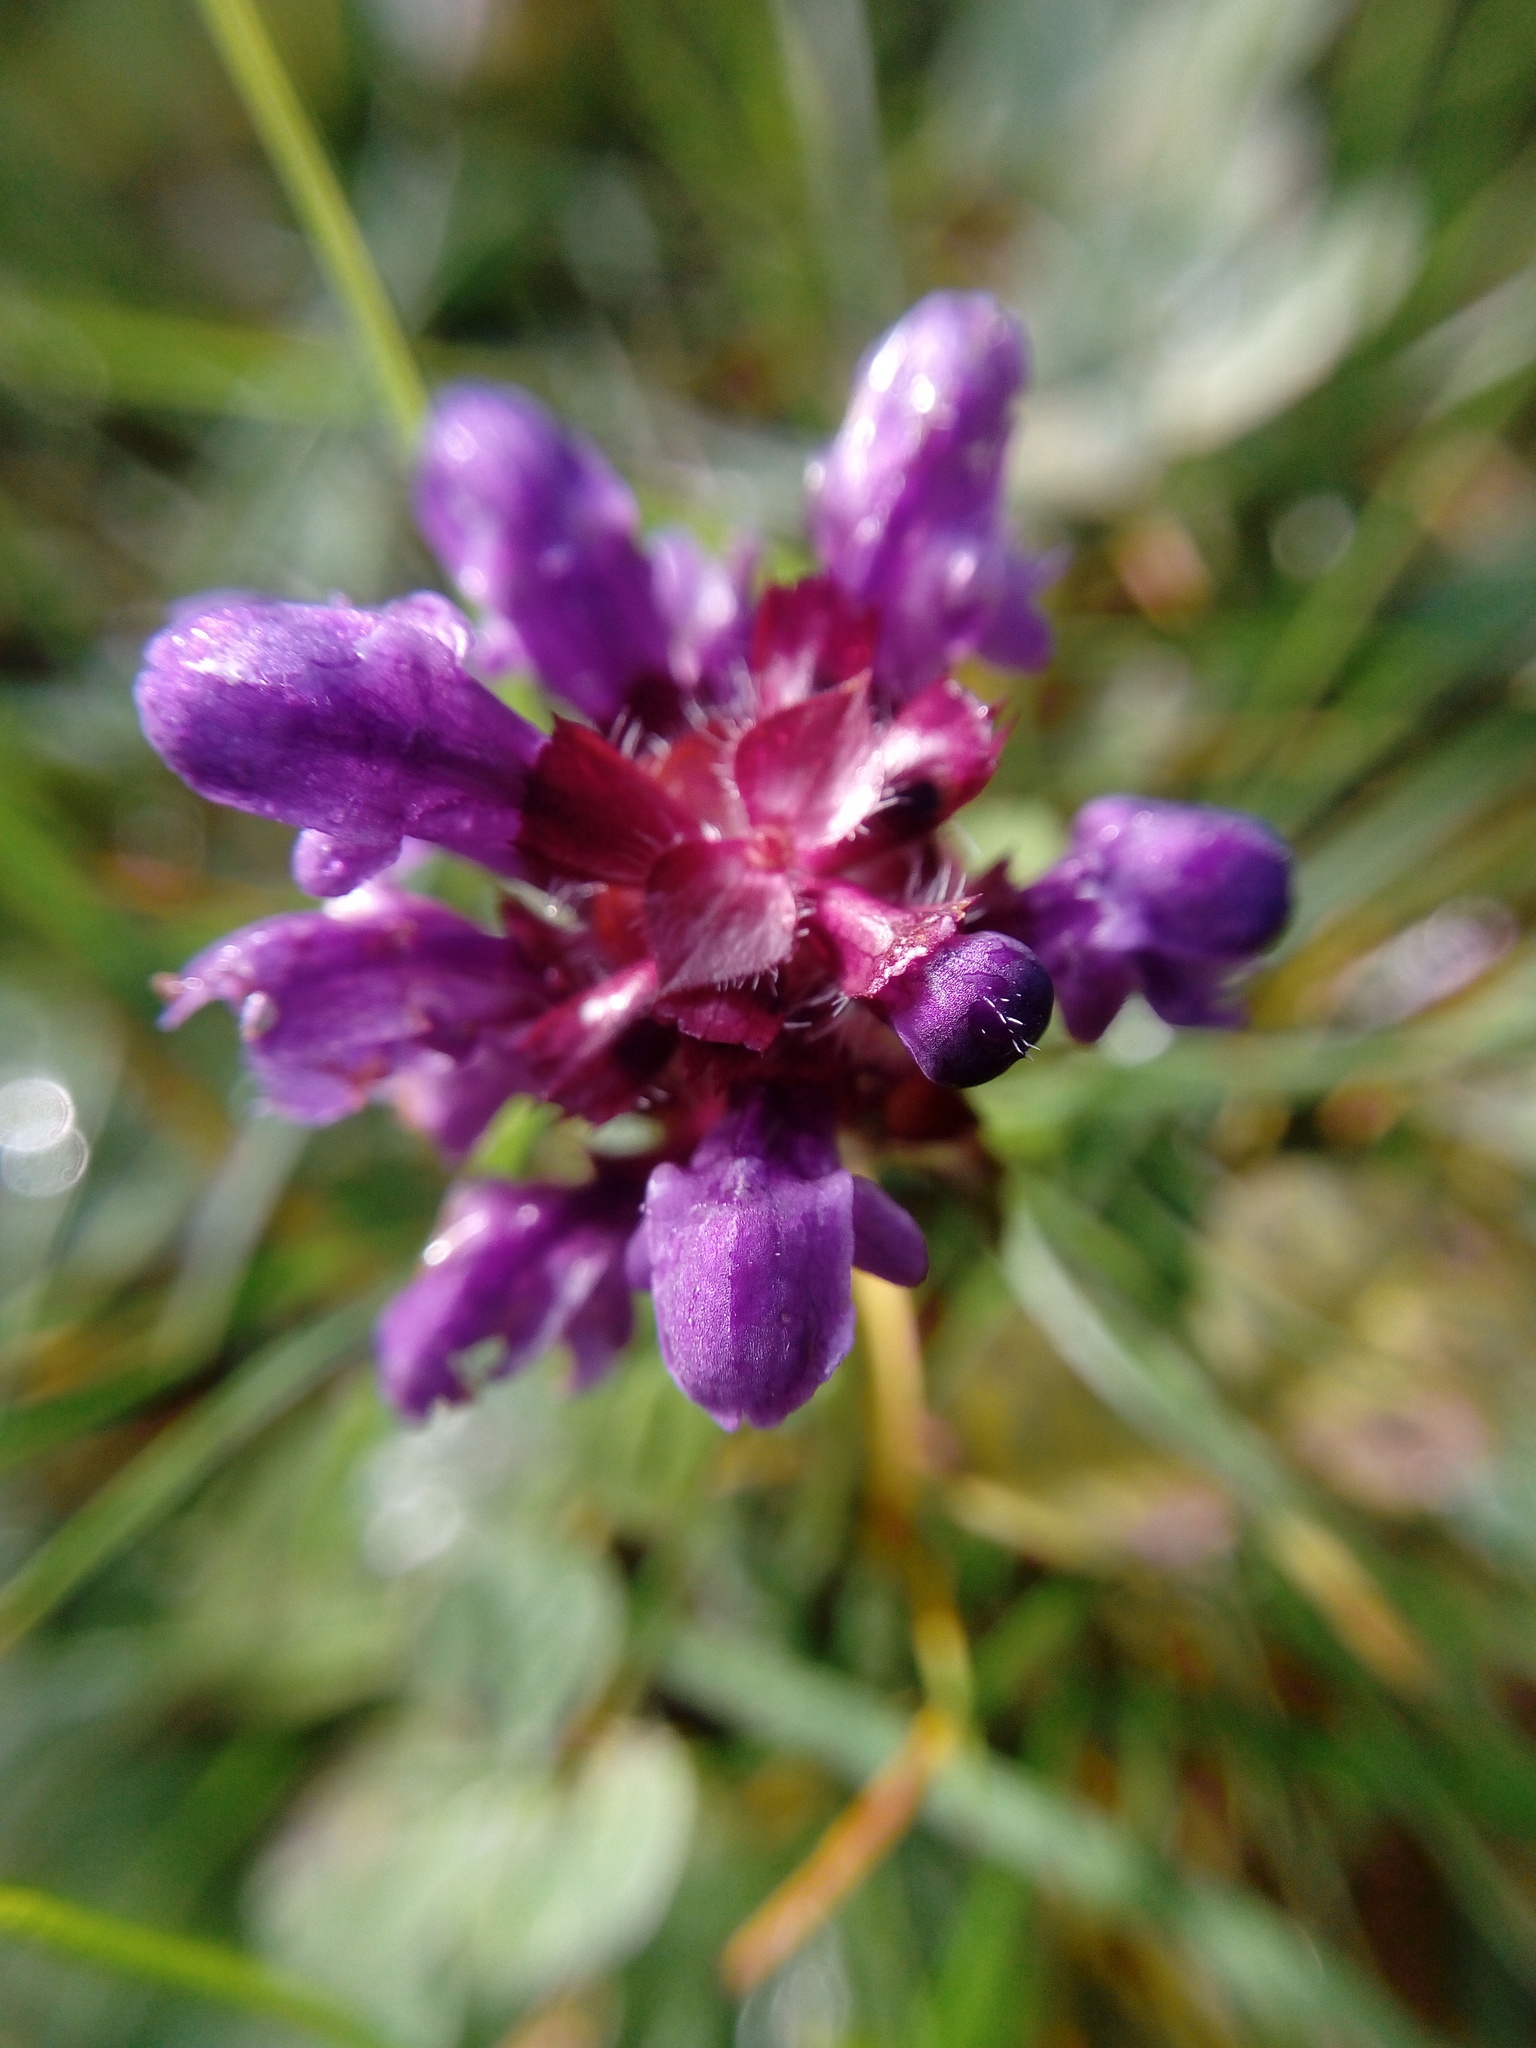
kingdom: Plantae
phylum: Tracheophyta
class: Magnoliopsida
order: Lamiales
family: Lamiaceae
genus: Prunella
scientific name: Prunella vulgaris
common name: Heal-all
